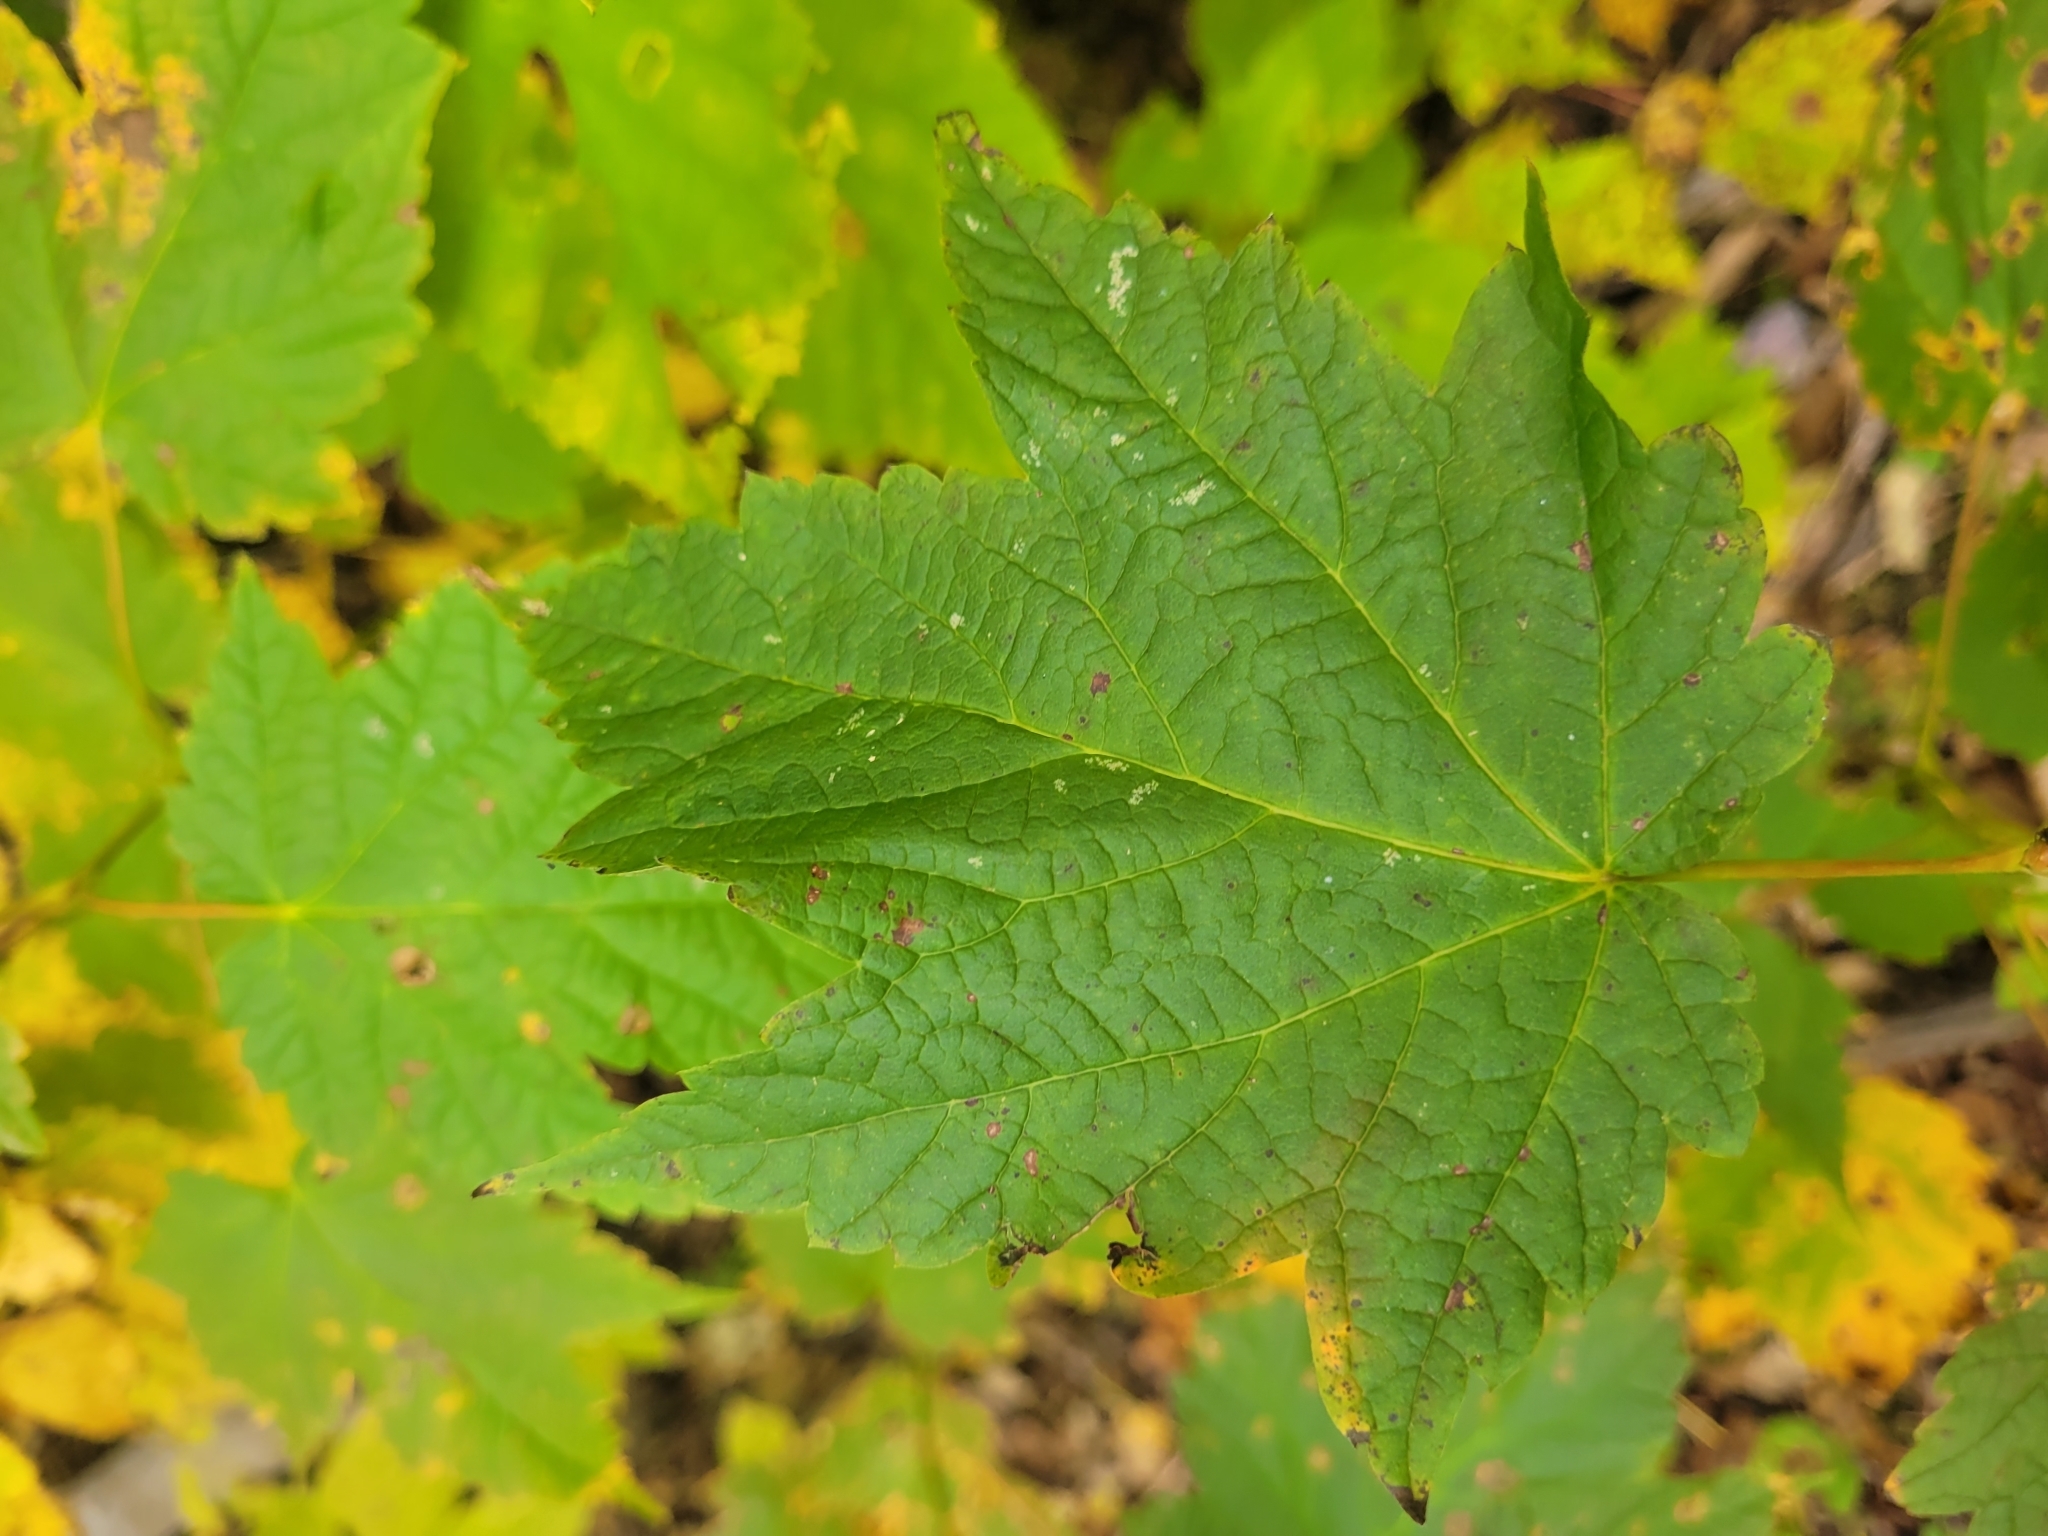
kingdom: Plantae
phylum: Tracheophyta
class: Magnoliopsida
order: Sapindales
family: Sapindaceae
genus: Acer
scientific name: Acer spicatum
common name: Mountain maple
